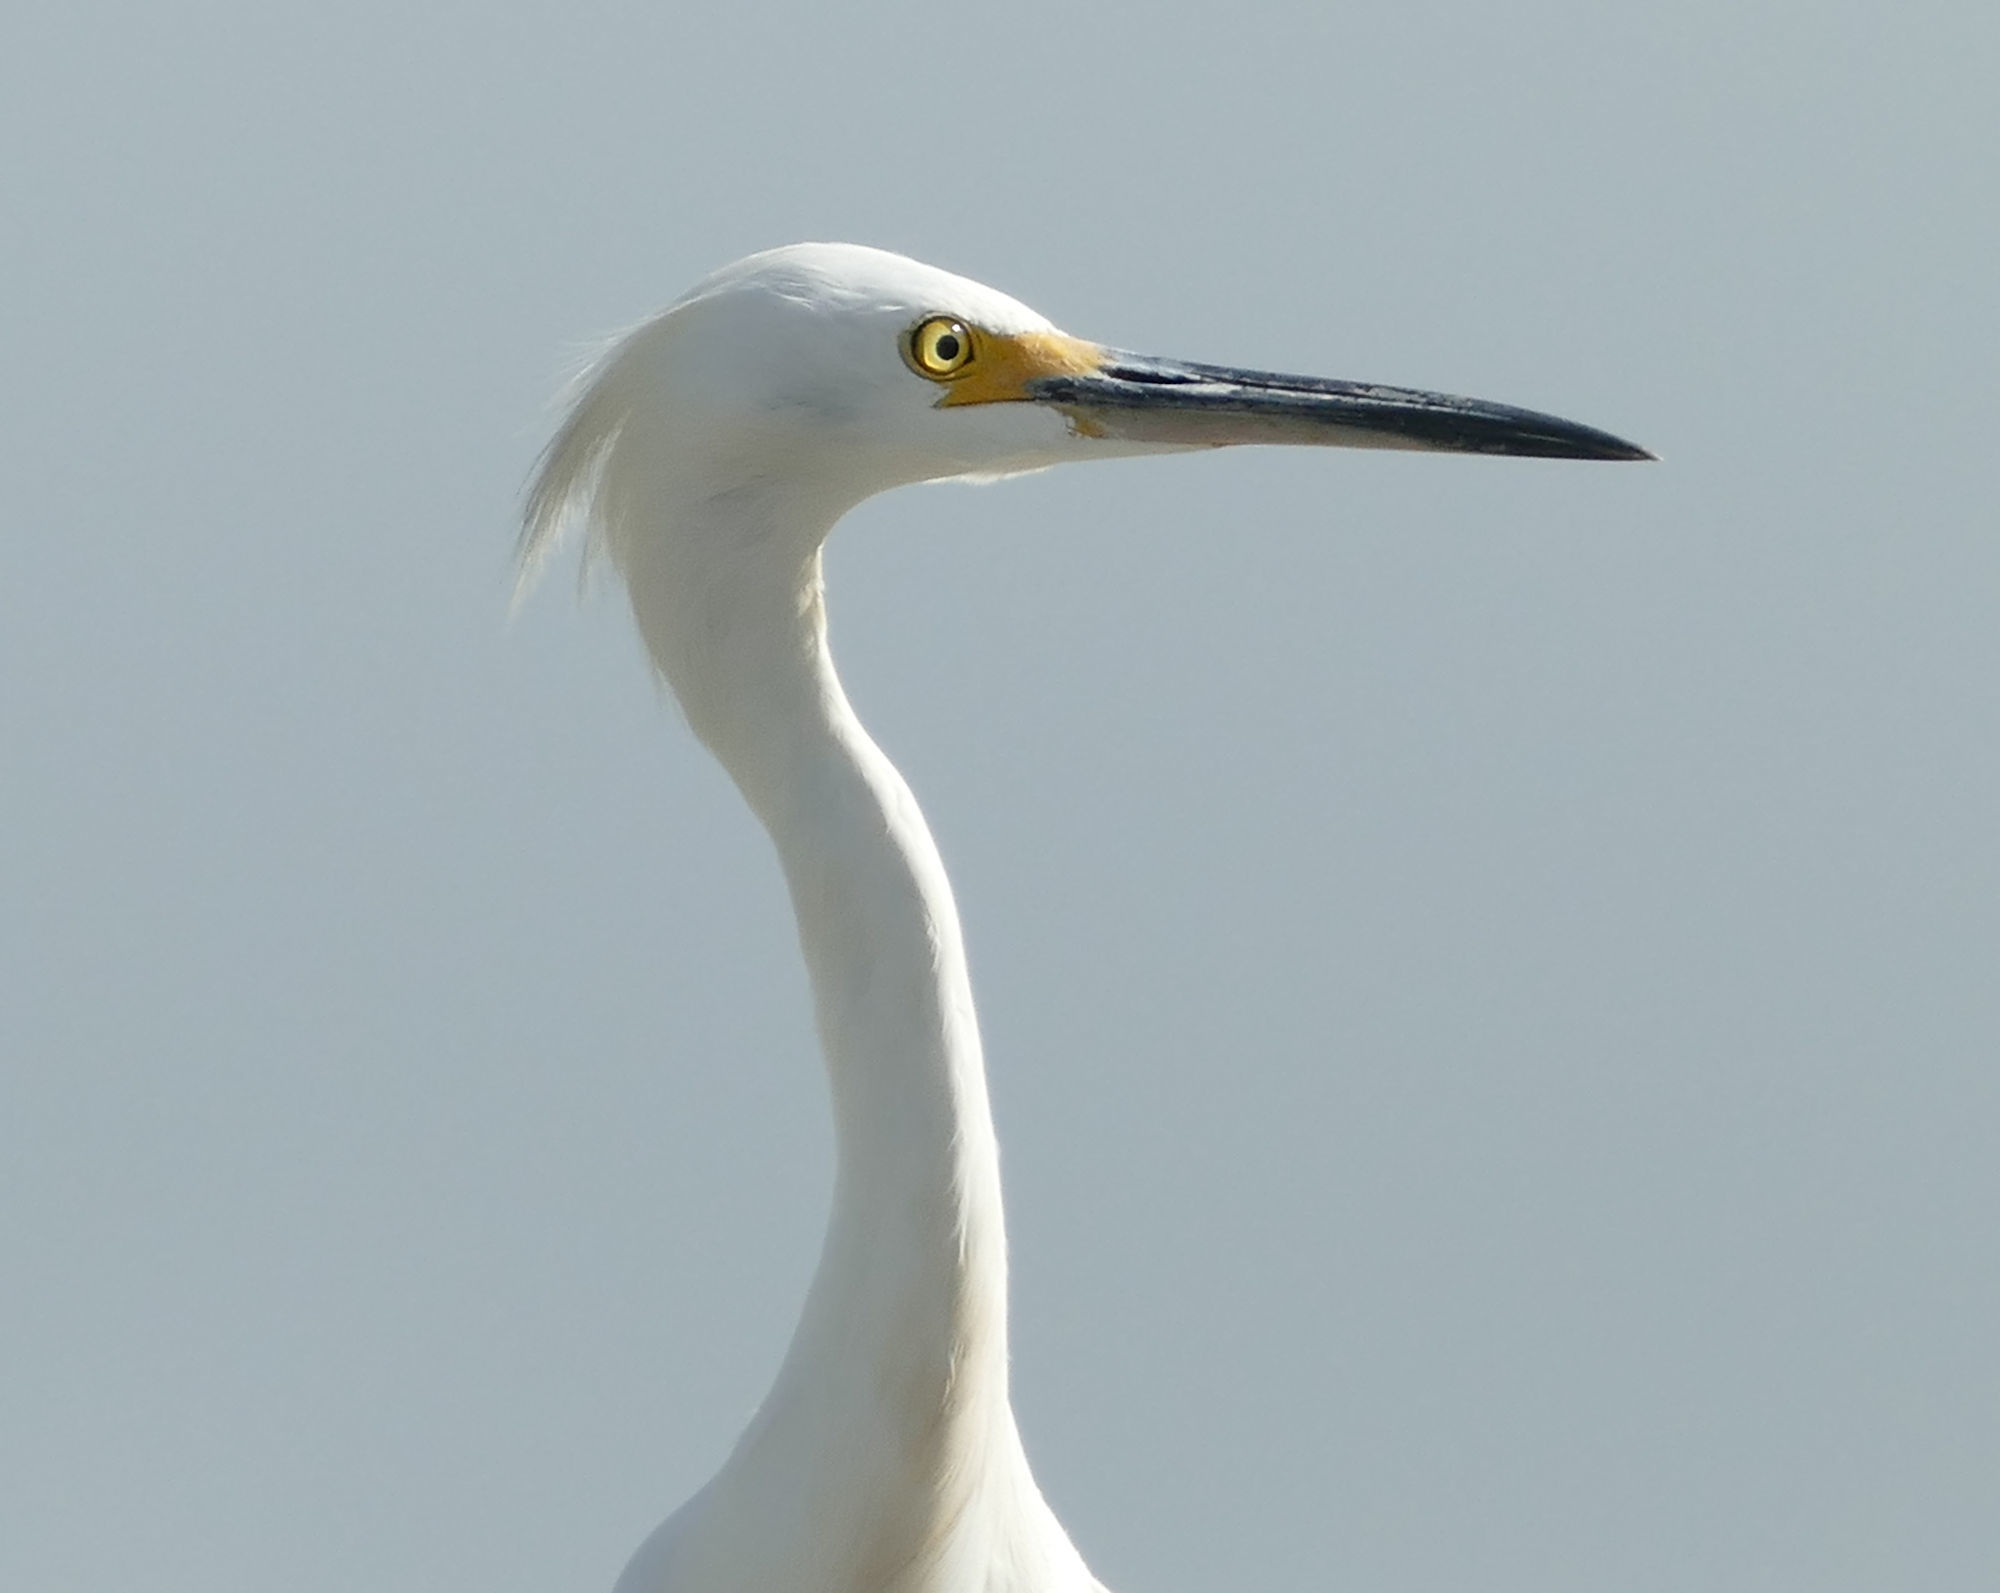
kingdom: Animalia
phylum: Chordata
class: Aves
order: Pelecaniformes
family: Ardeidae
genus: Egretta
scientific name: Egretta thula
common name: Snowy egret
